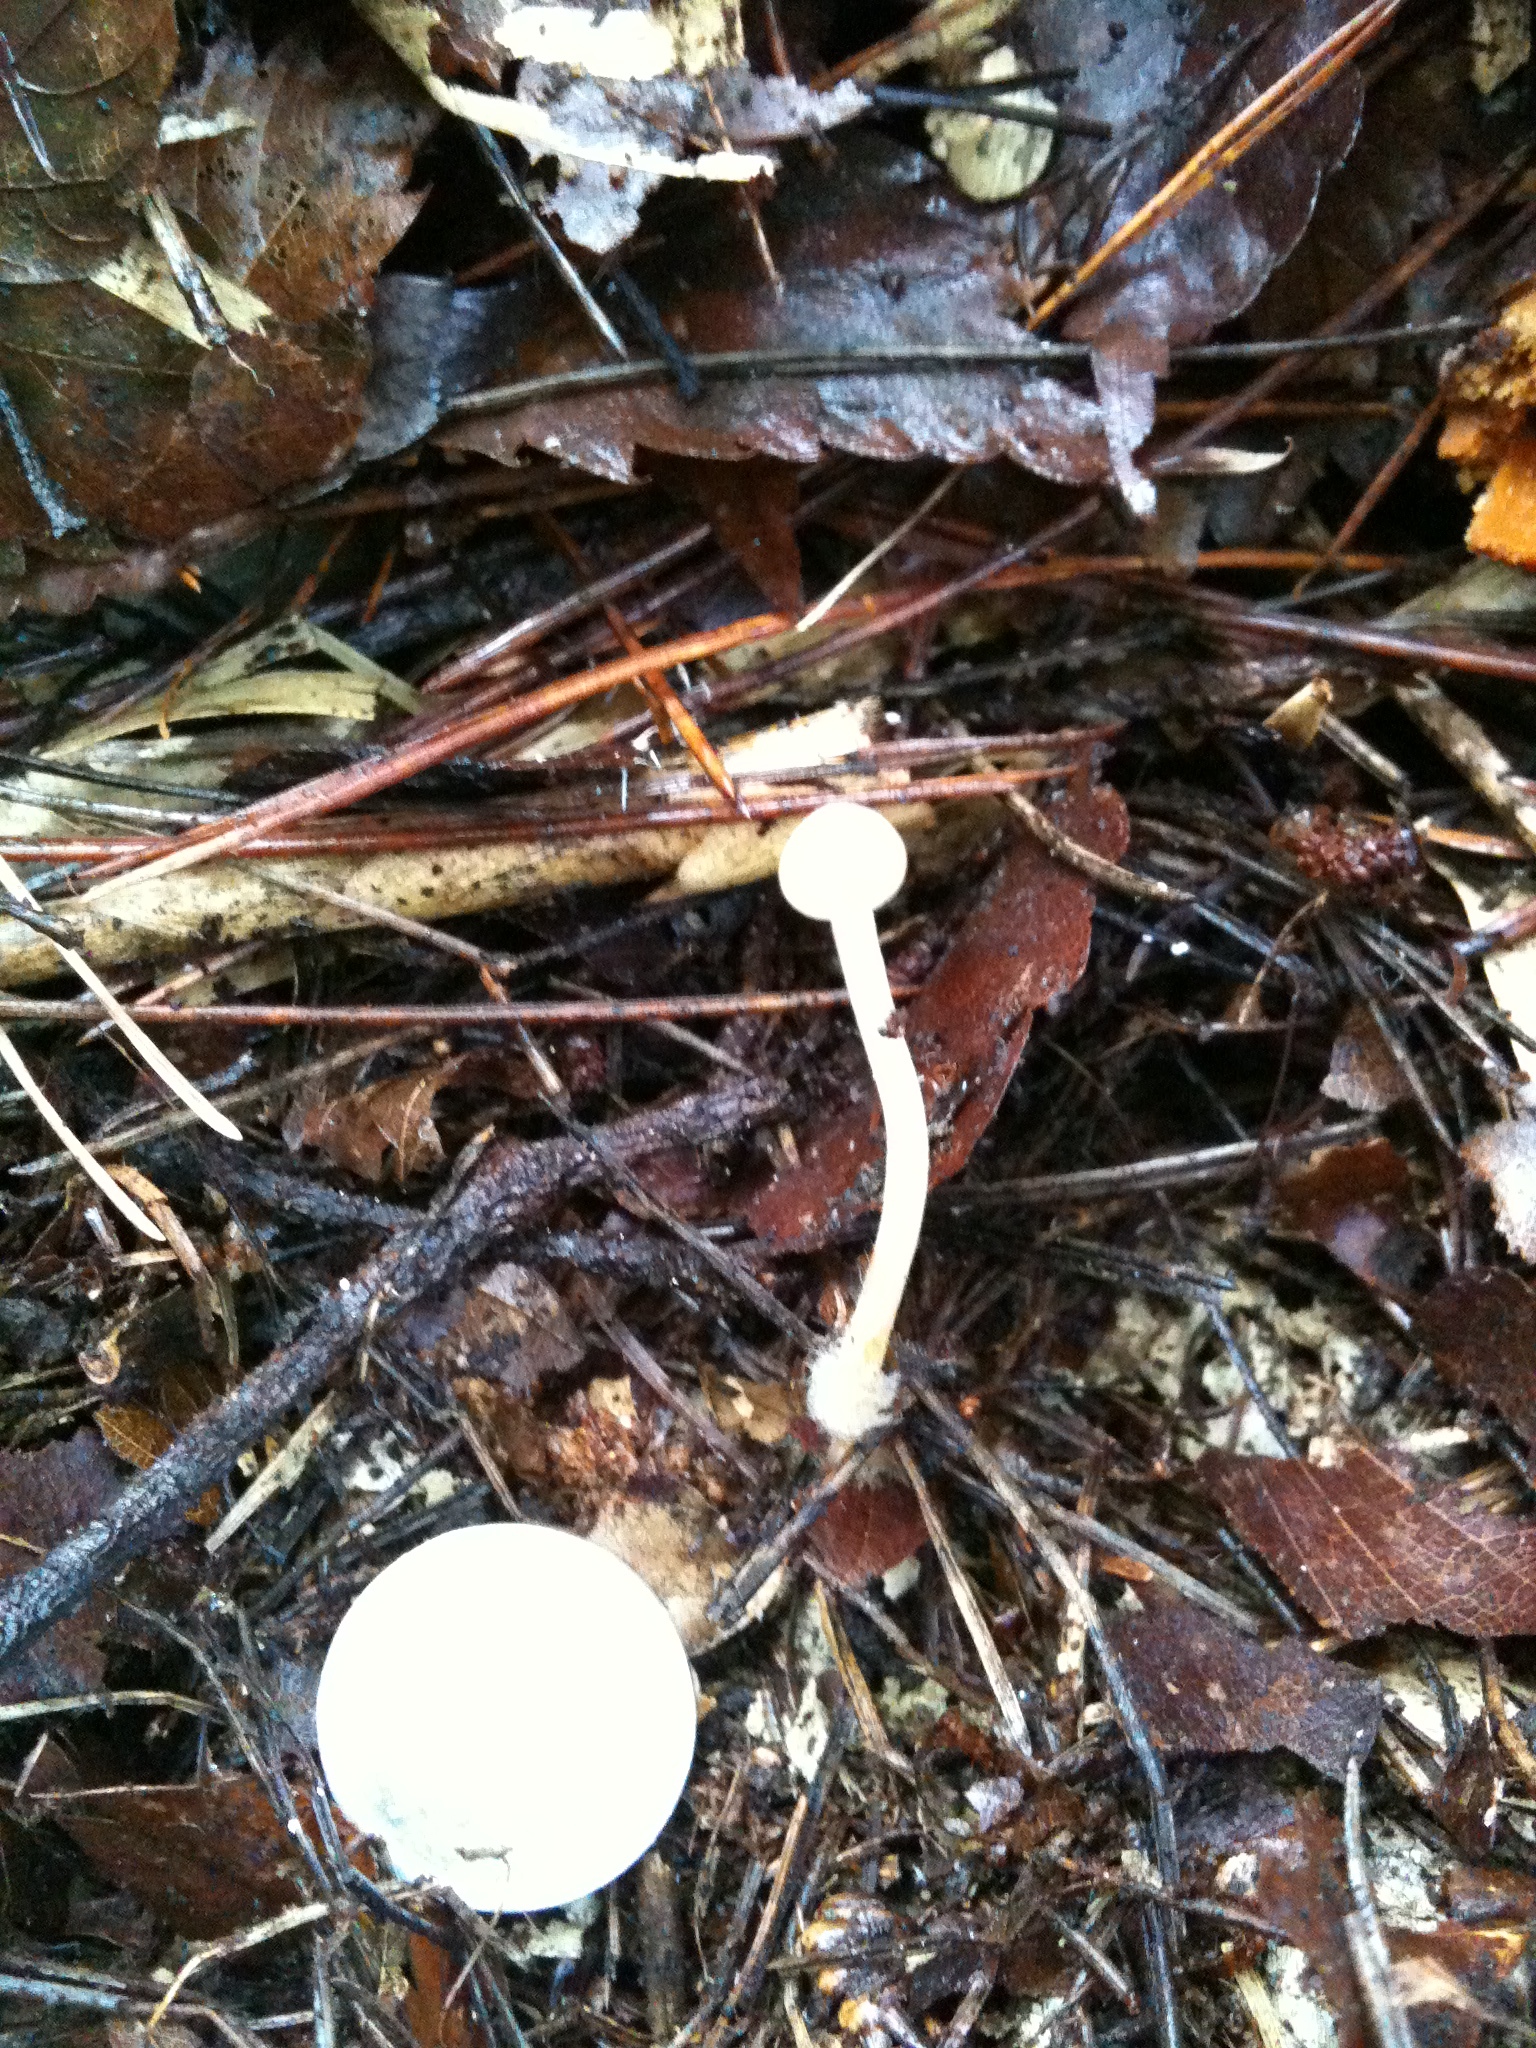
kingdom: Fungi
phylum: Basidiomycota
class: Agaricomycetes
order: Agaricales
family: Physalacriaceae
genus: Strobilurus
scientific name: Strobilurus stephanocystis
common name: Russian conecap
